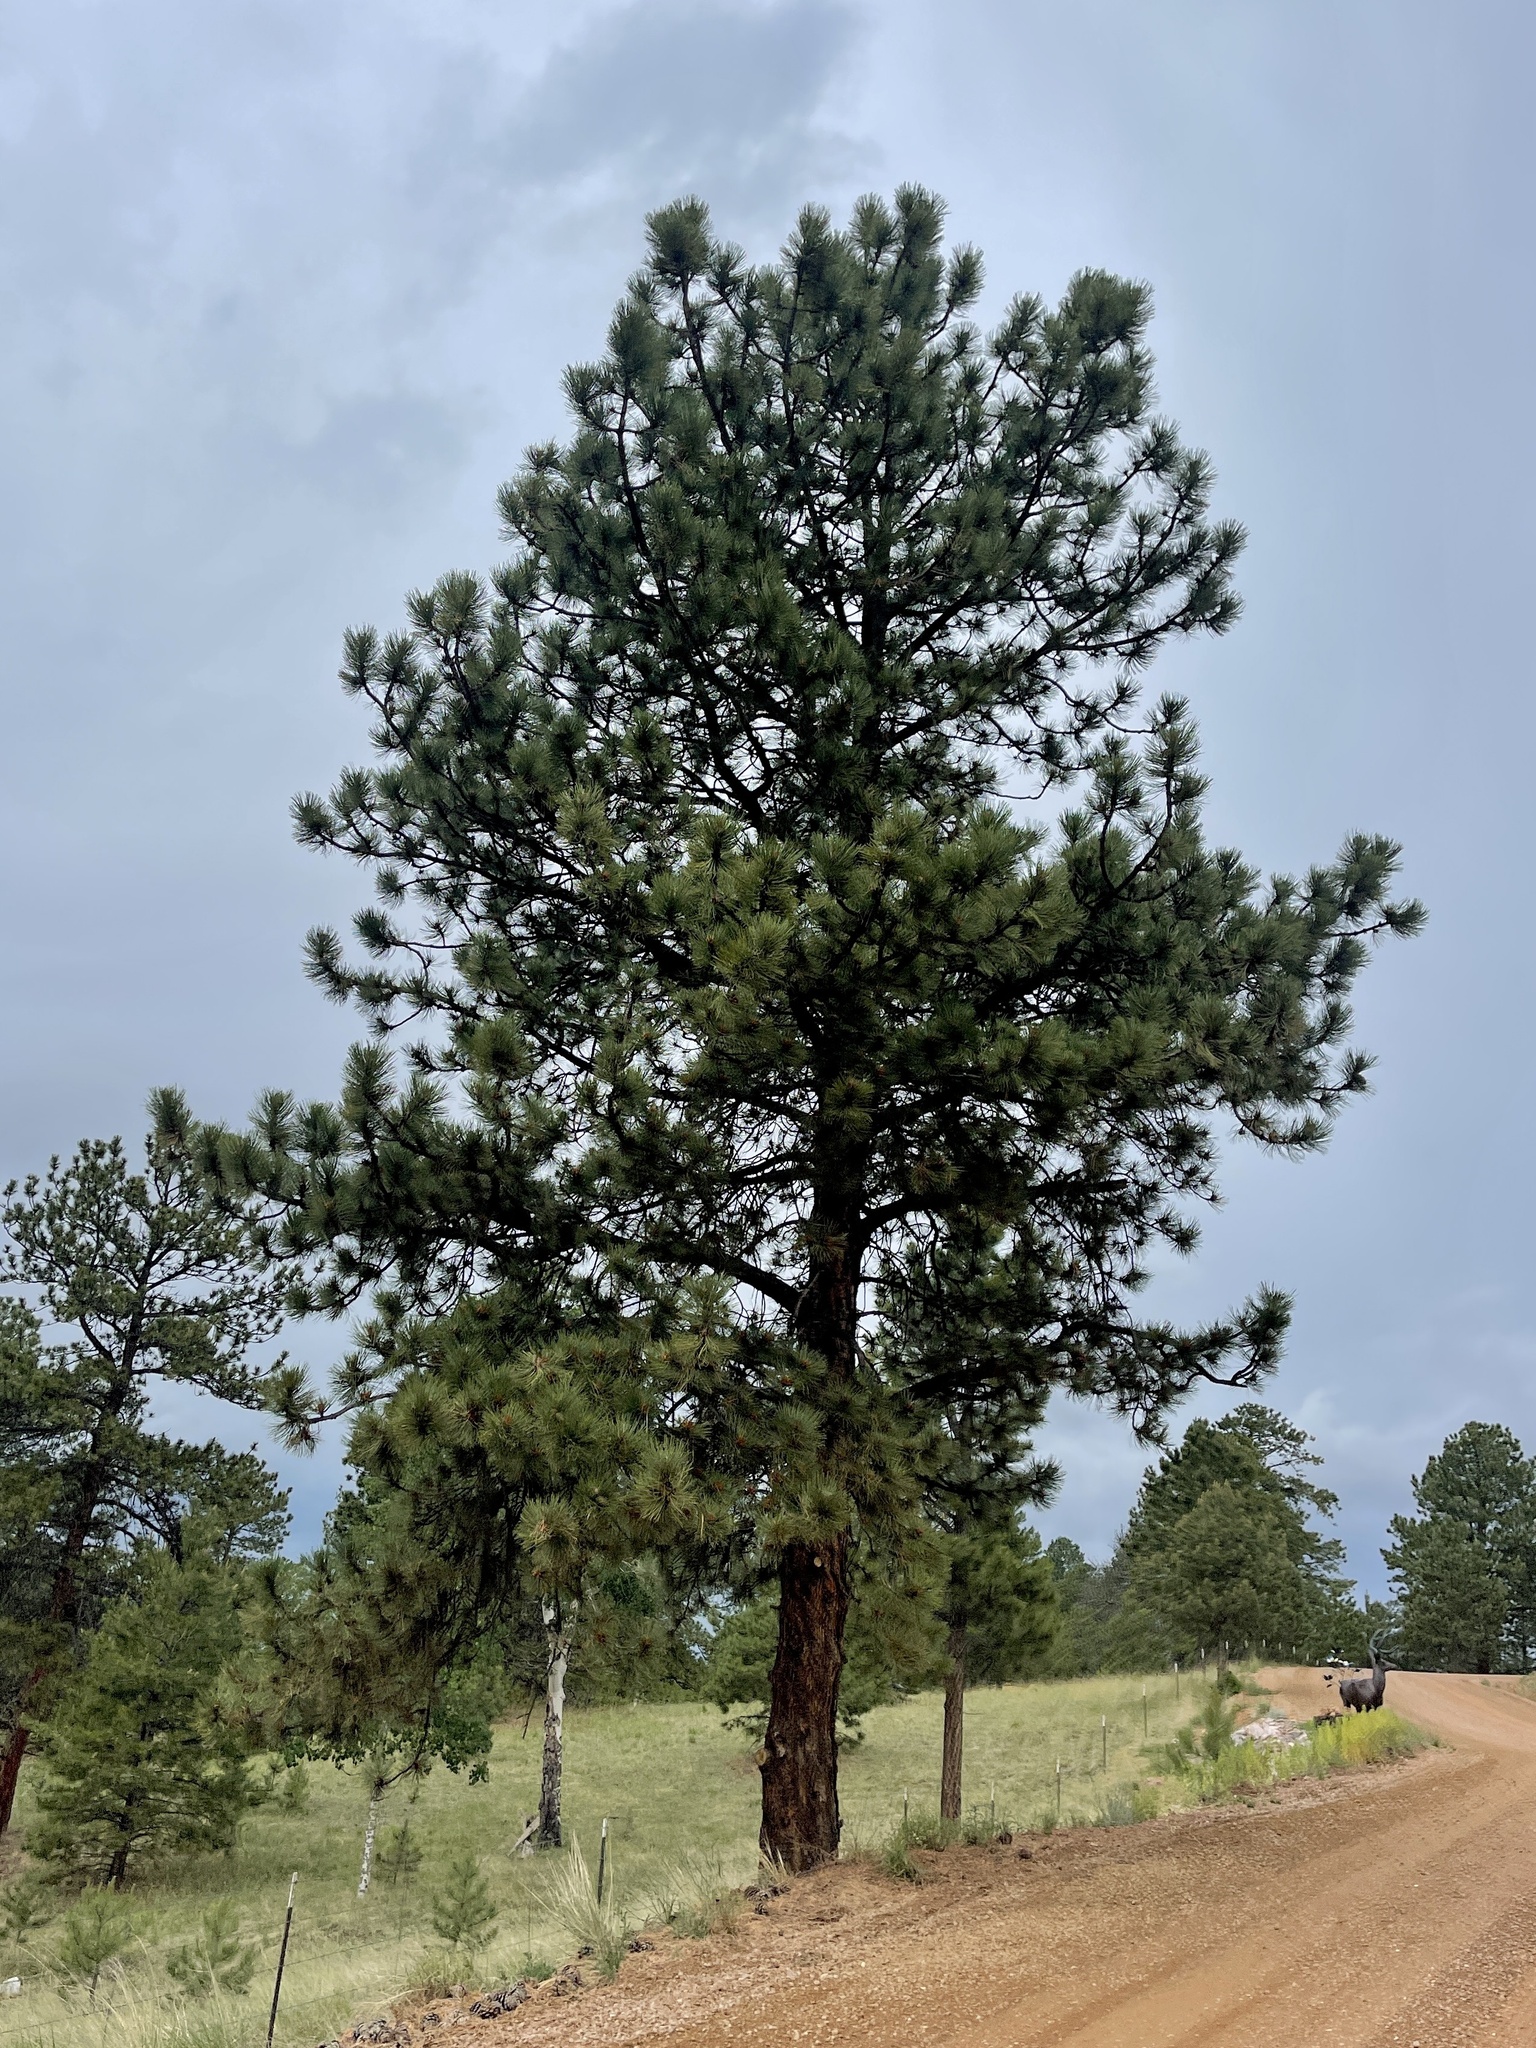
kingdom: Plantae
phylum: Tracheophyta
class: Pinopsida
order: Pinales
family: Pinaceae
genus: Pinus
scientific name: Pinus ponderosa
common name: Western yellow-pine
